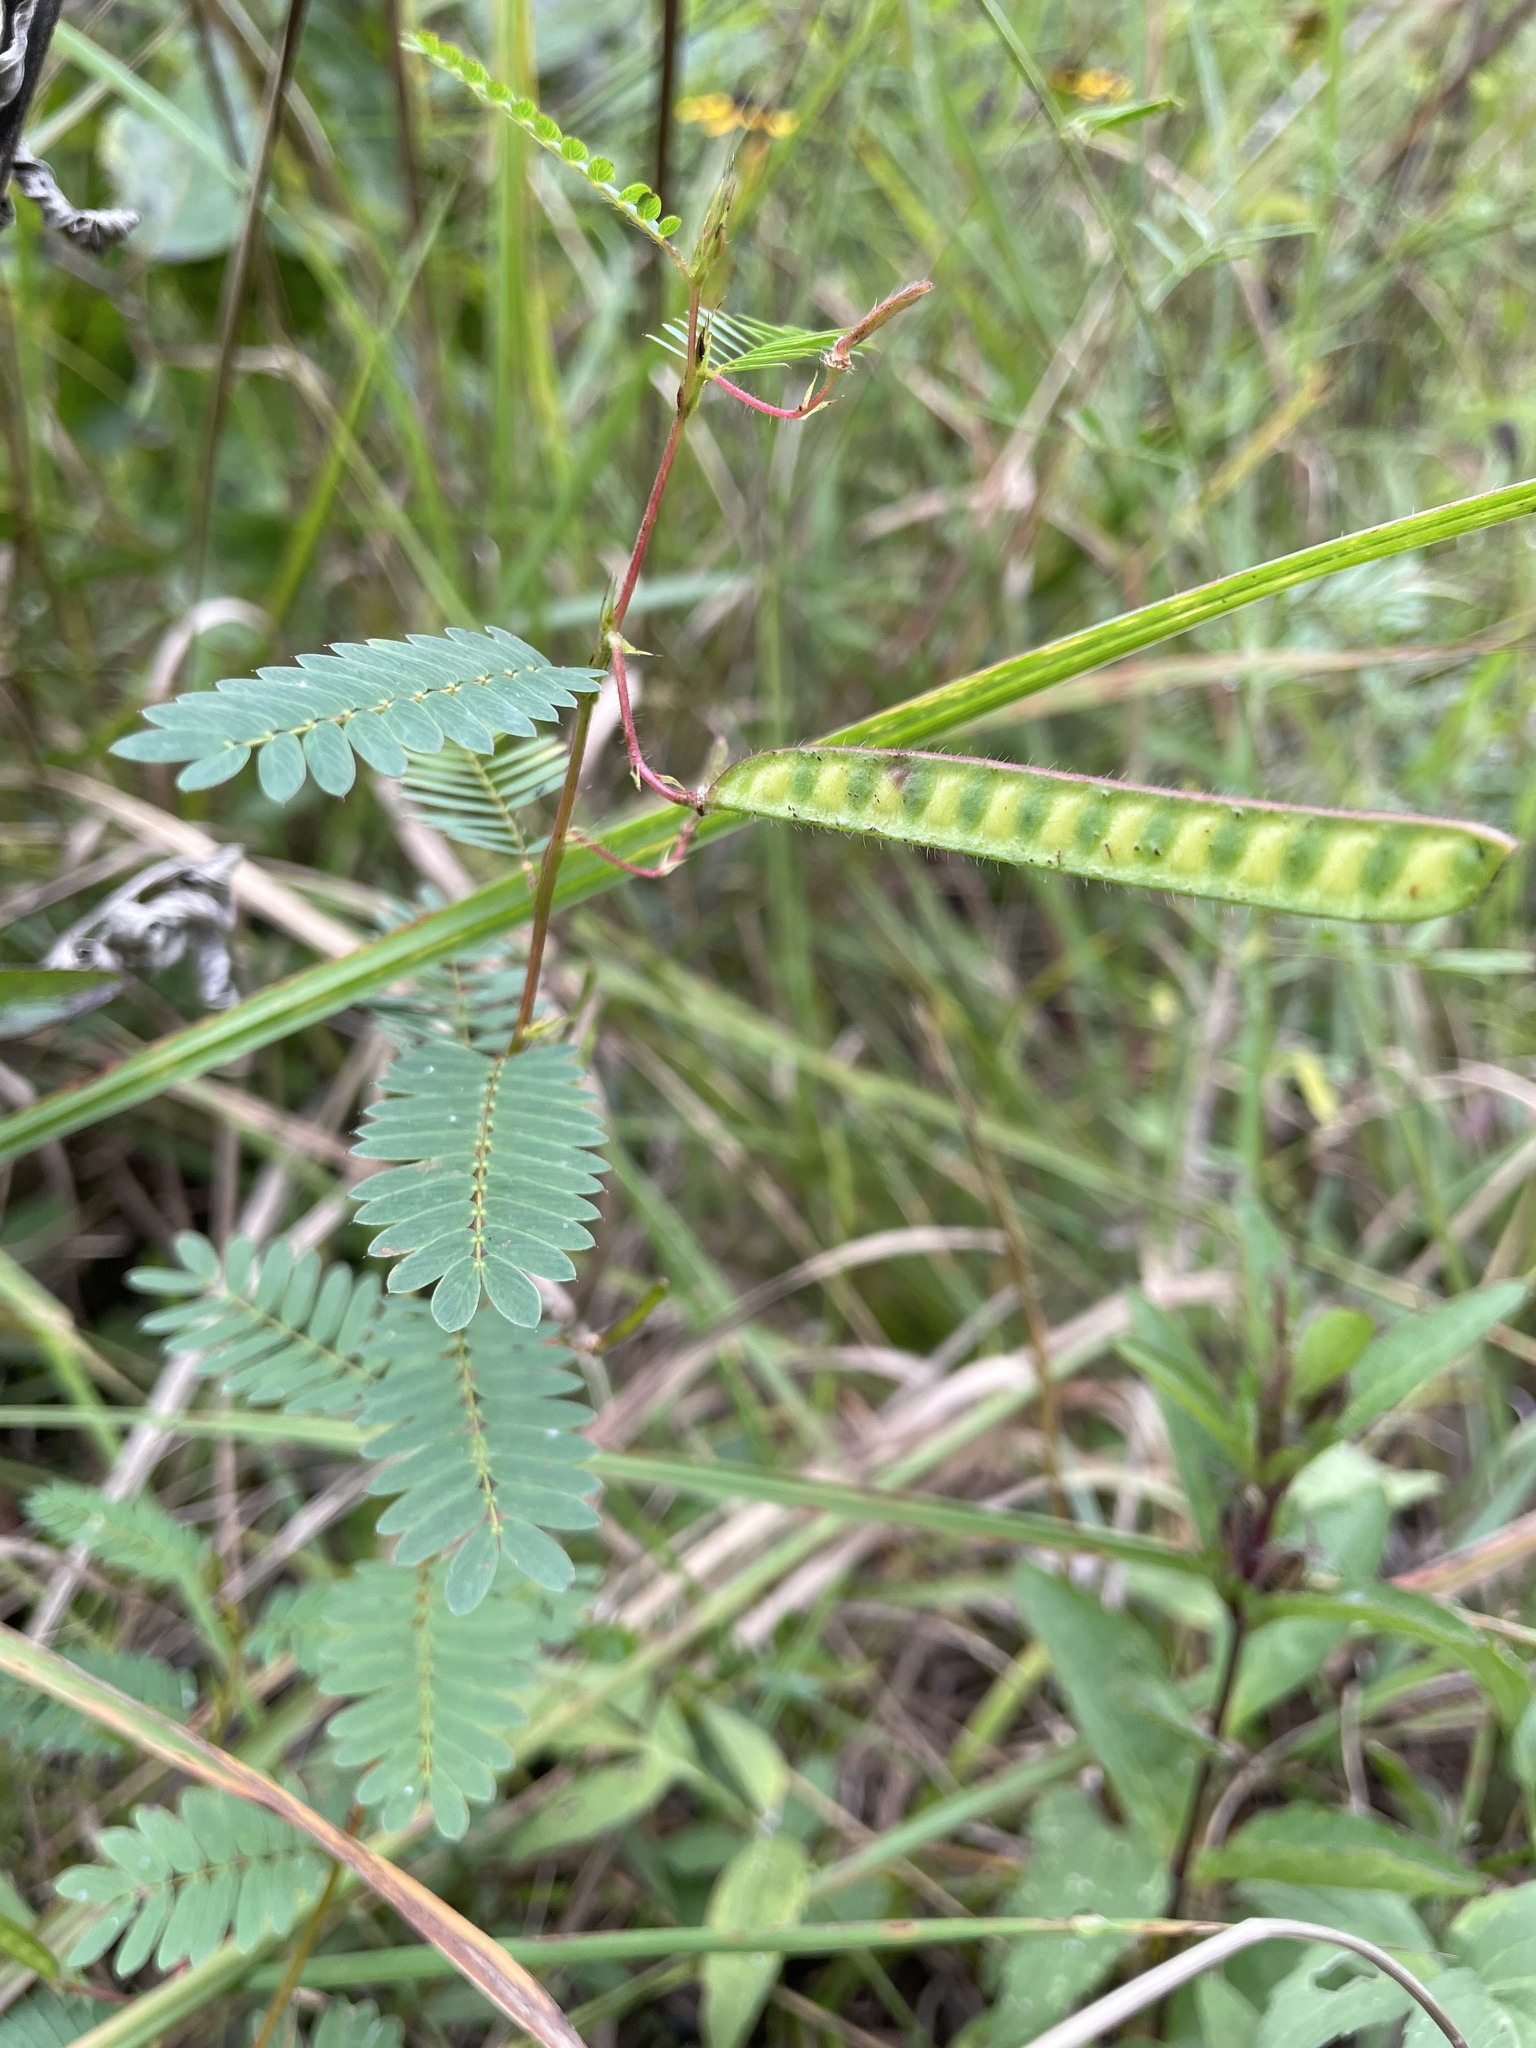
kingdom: Plantae
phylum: Tracheophyta
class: Magnoliopsida
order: Fabales
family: Fabaceae
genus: Chamaecrista
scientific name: Chamaecrista fasciculata
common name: Golden cassia
